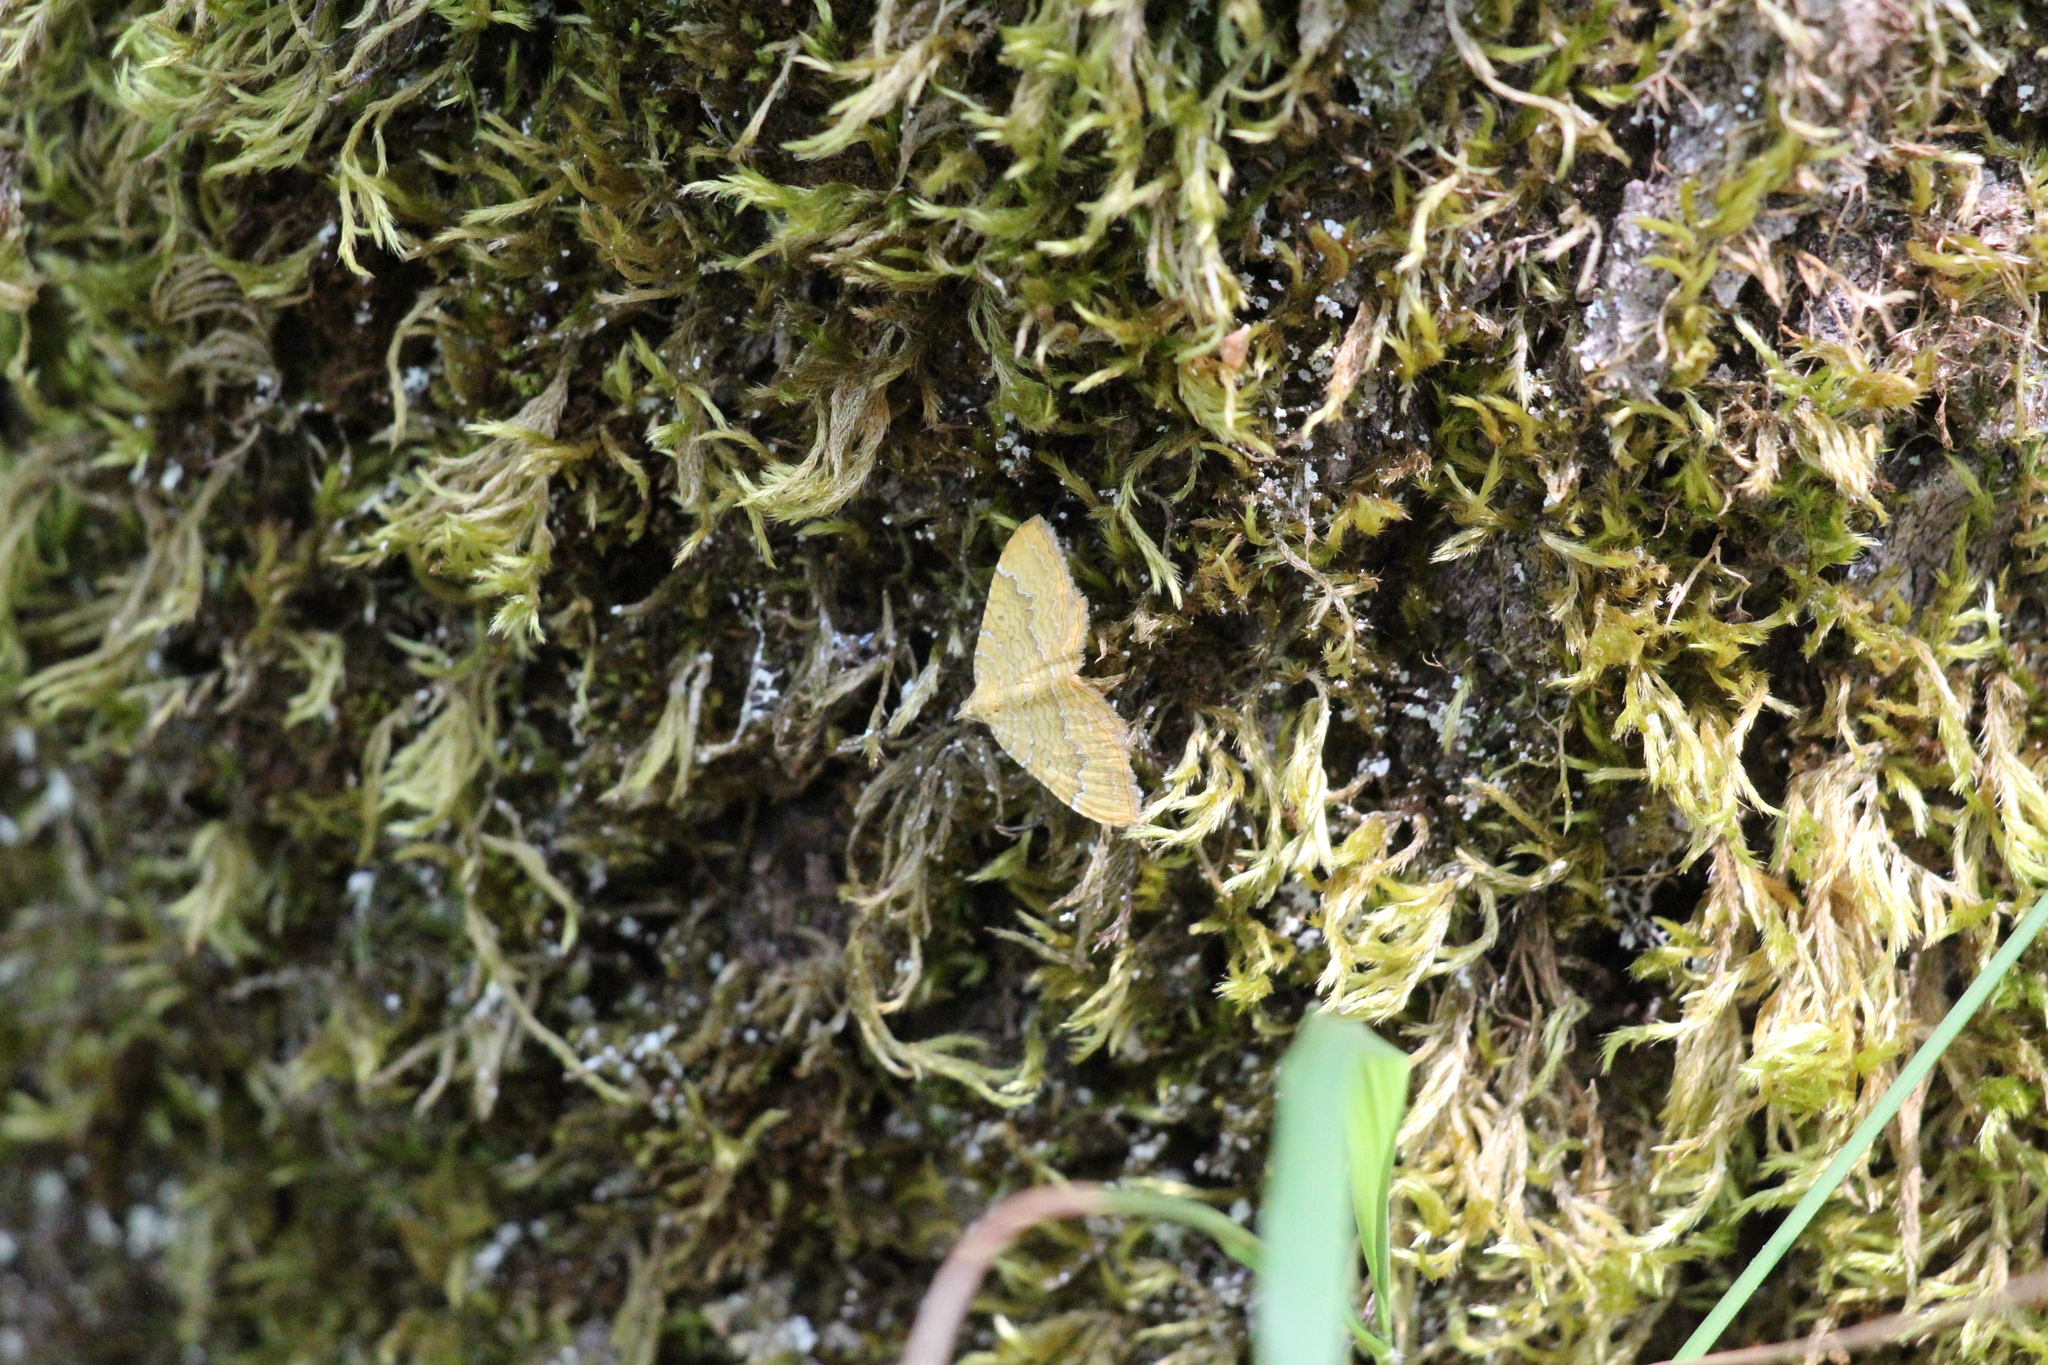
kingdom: Animalia
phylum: Arthropoda
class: Insecta
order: Lepidoptera
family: Geometridae
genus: Camptogramma
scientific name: Camptogramma bilineata
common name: Yellow shell
